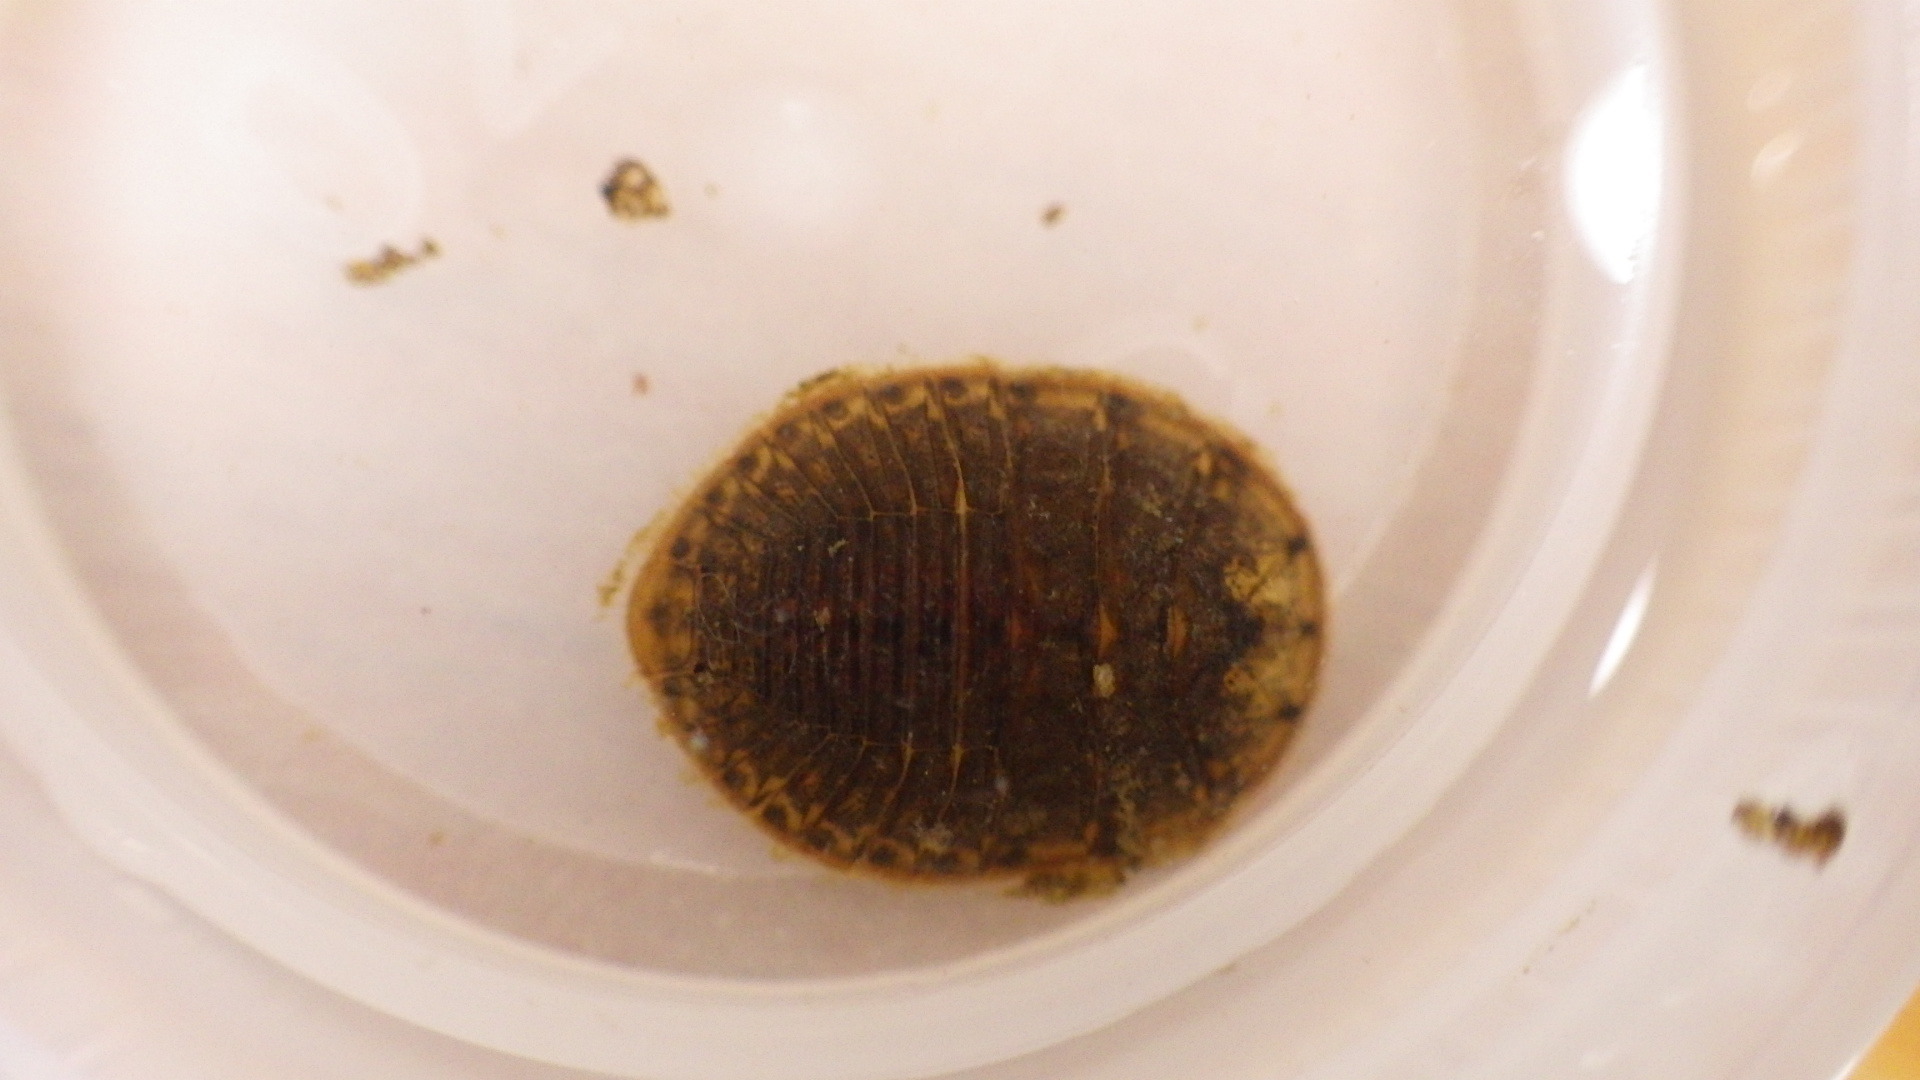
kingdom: Animalia
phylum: Arthropoda
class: Insecta
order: Coleoptera
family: Psephenidae
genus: Psephenus
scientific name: Psephenus herricki
